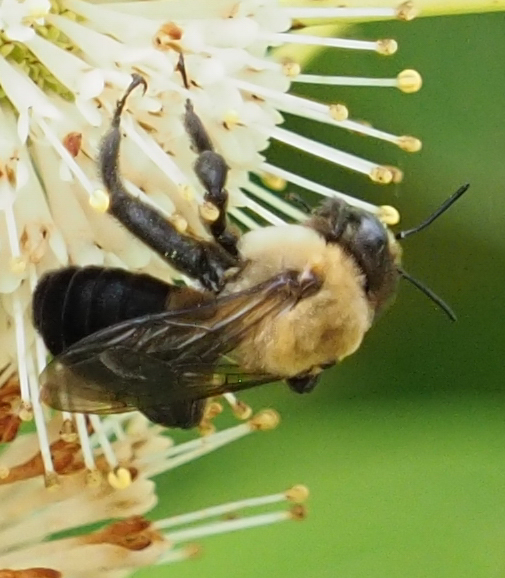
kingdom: Animalia
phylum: Arthropoda
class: Insecta
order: Hymenoptera
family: Apidae
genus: Ptilothrix
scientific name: Ptilothrix bombiformis
